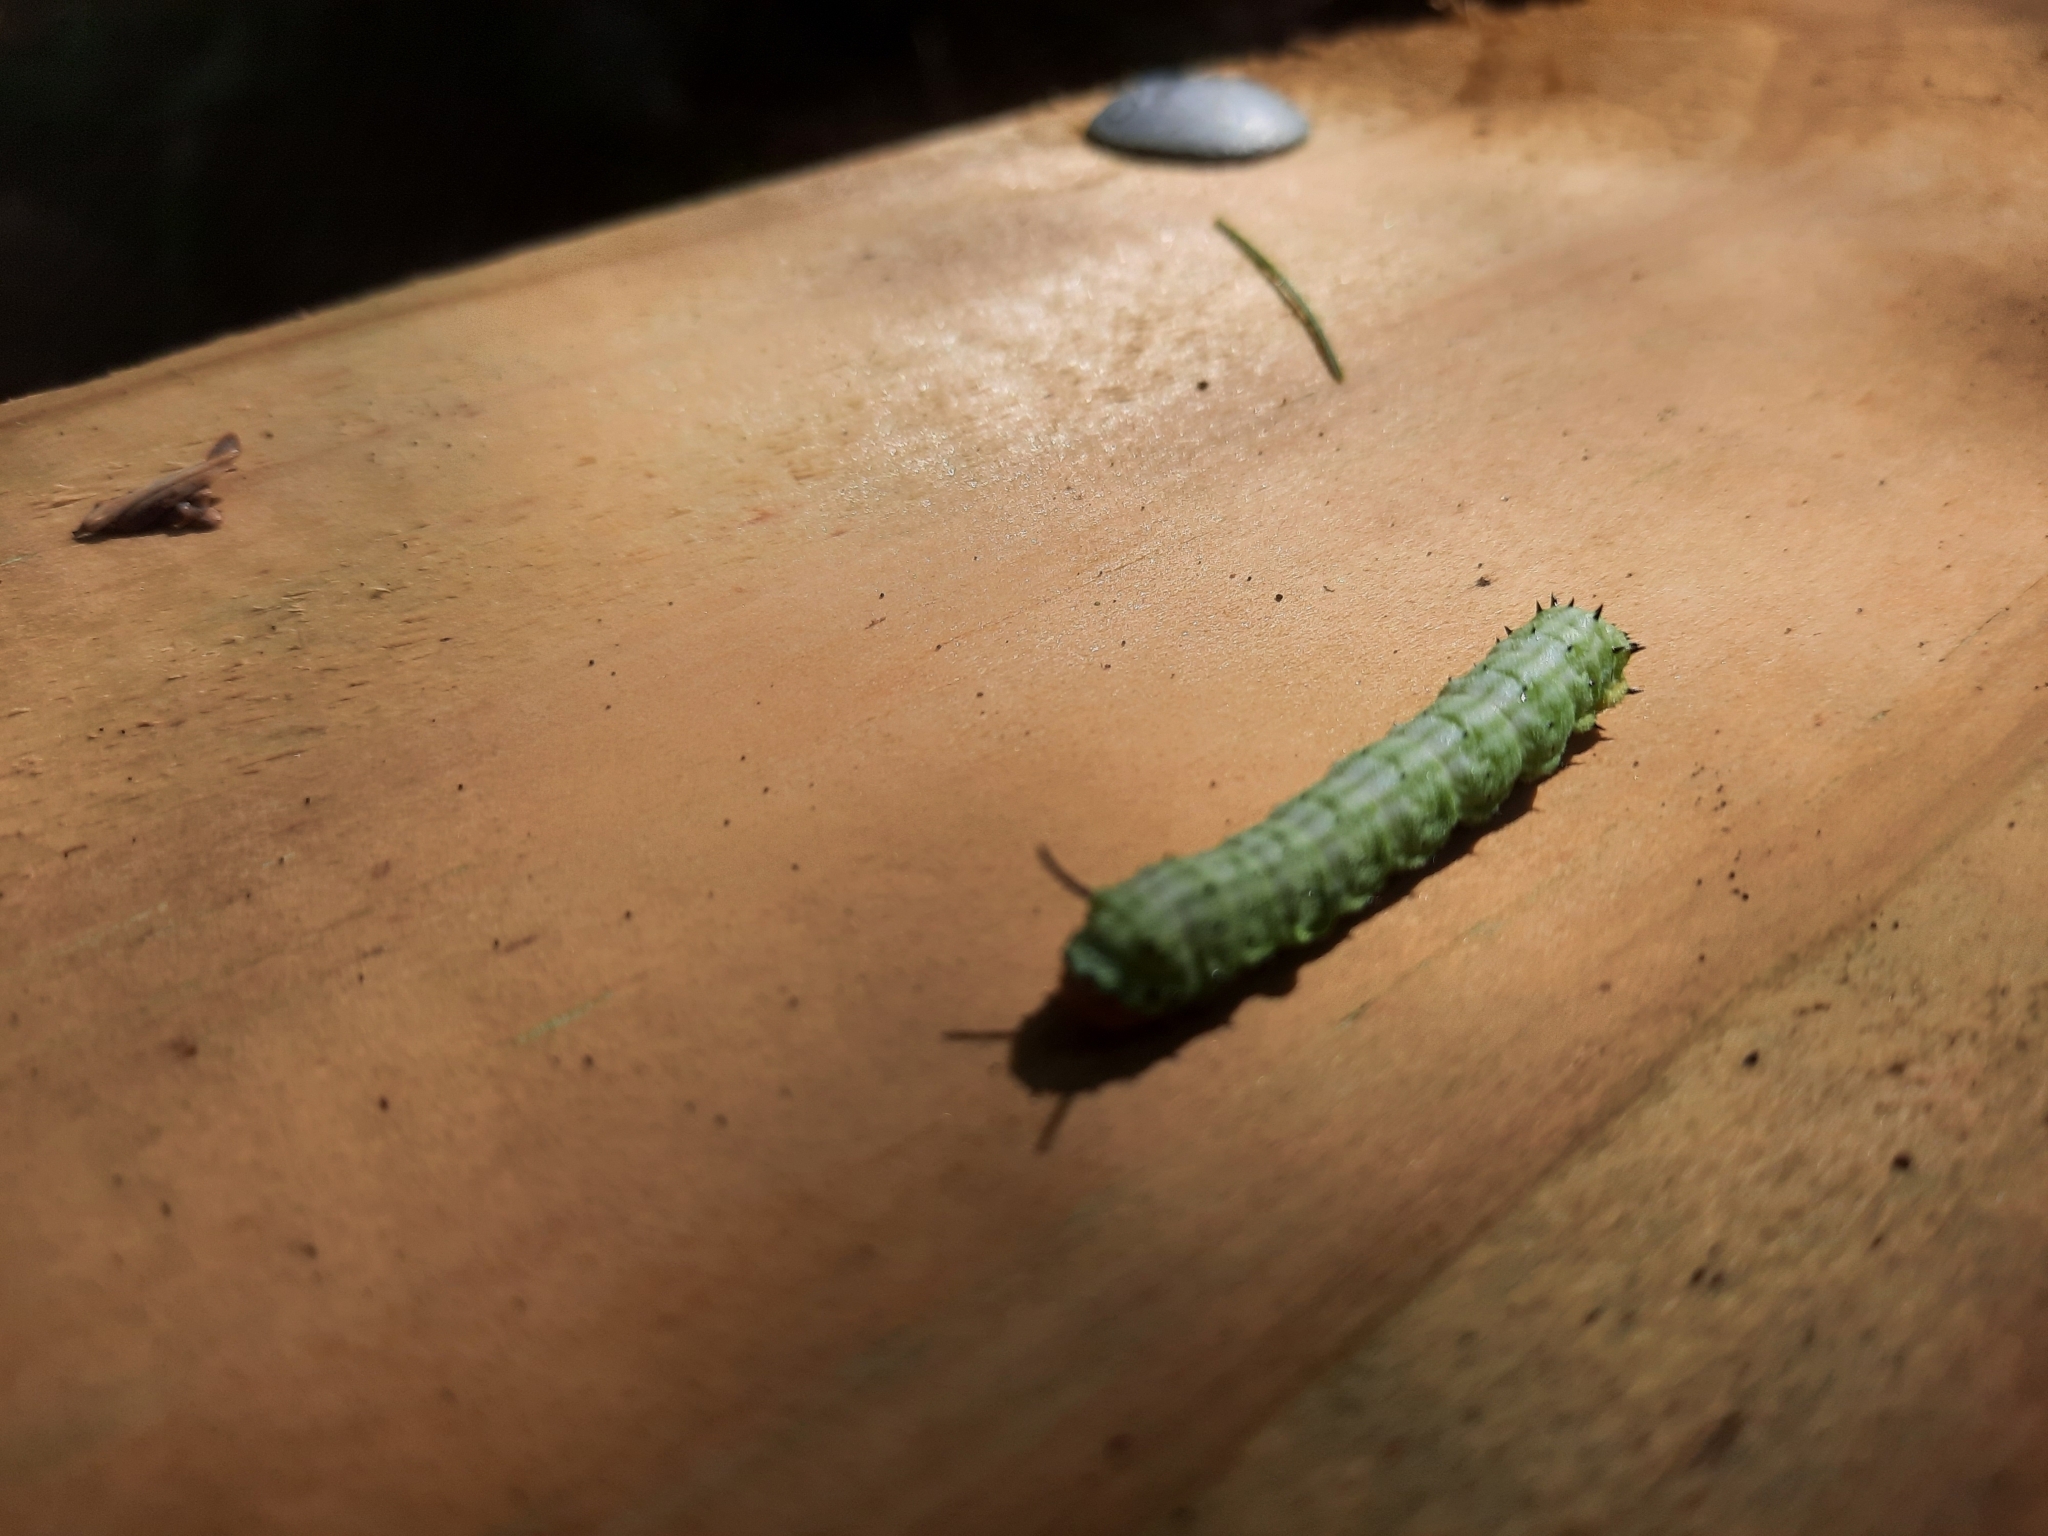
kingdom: Animalia
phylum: Arthropoda
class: Insecta
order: Lepidoptera
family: Saturniidae
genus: Dryocampa
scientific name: Dryocampa rubicunda
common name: Rosy maple moth
